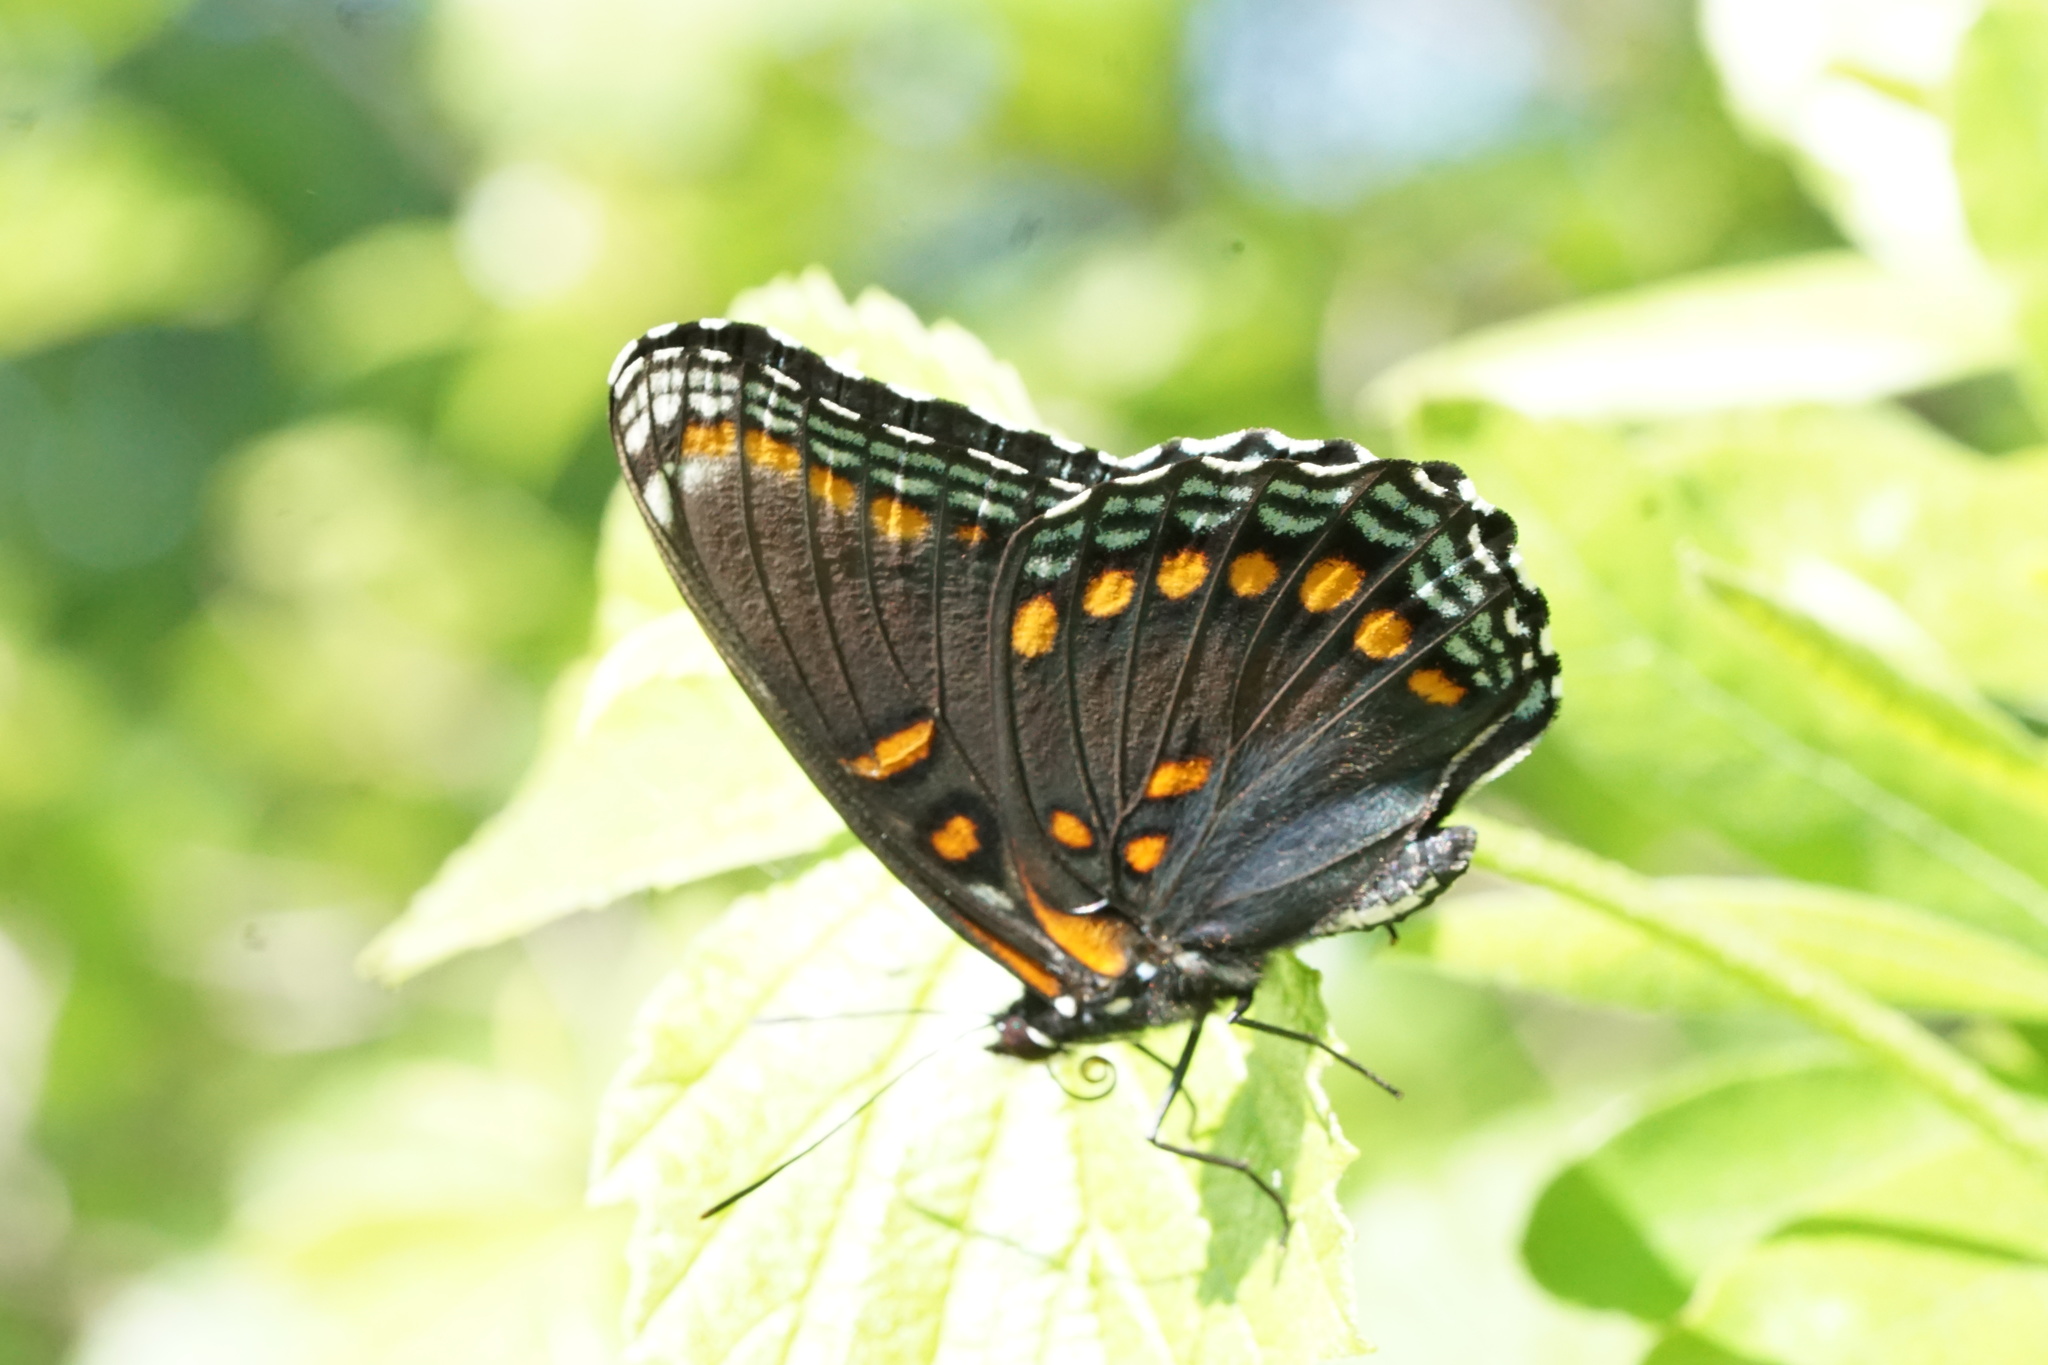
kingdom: Animalia
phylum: Arthropoda
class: Insecta
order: Lepidoptera
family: Nymphalidae
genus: Limenitis
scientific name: Limenitis arthemis
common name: Red-spotted admiral
